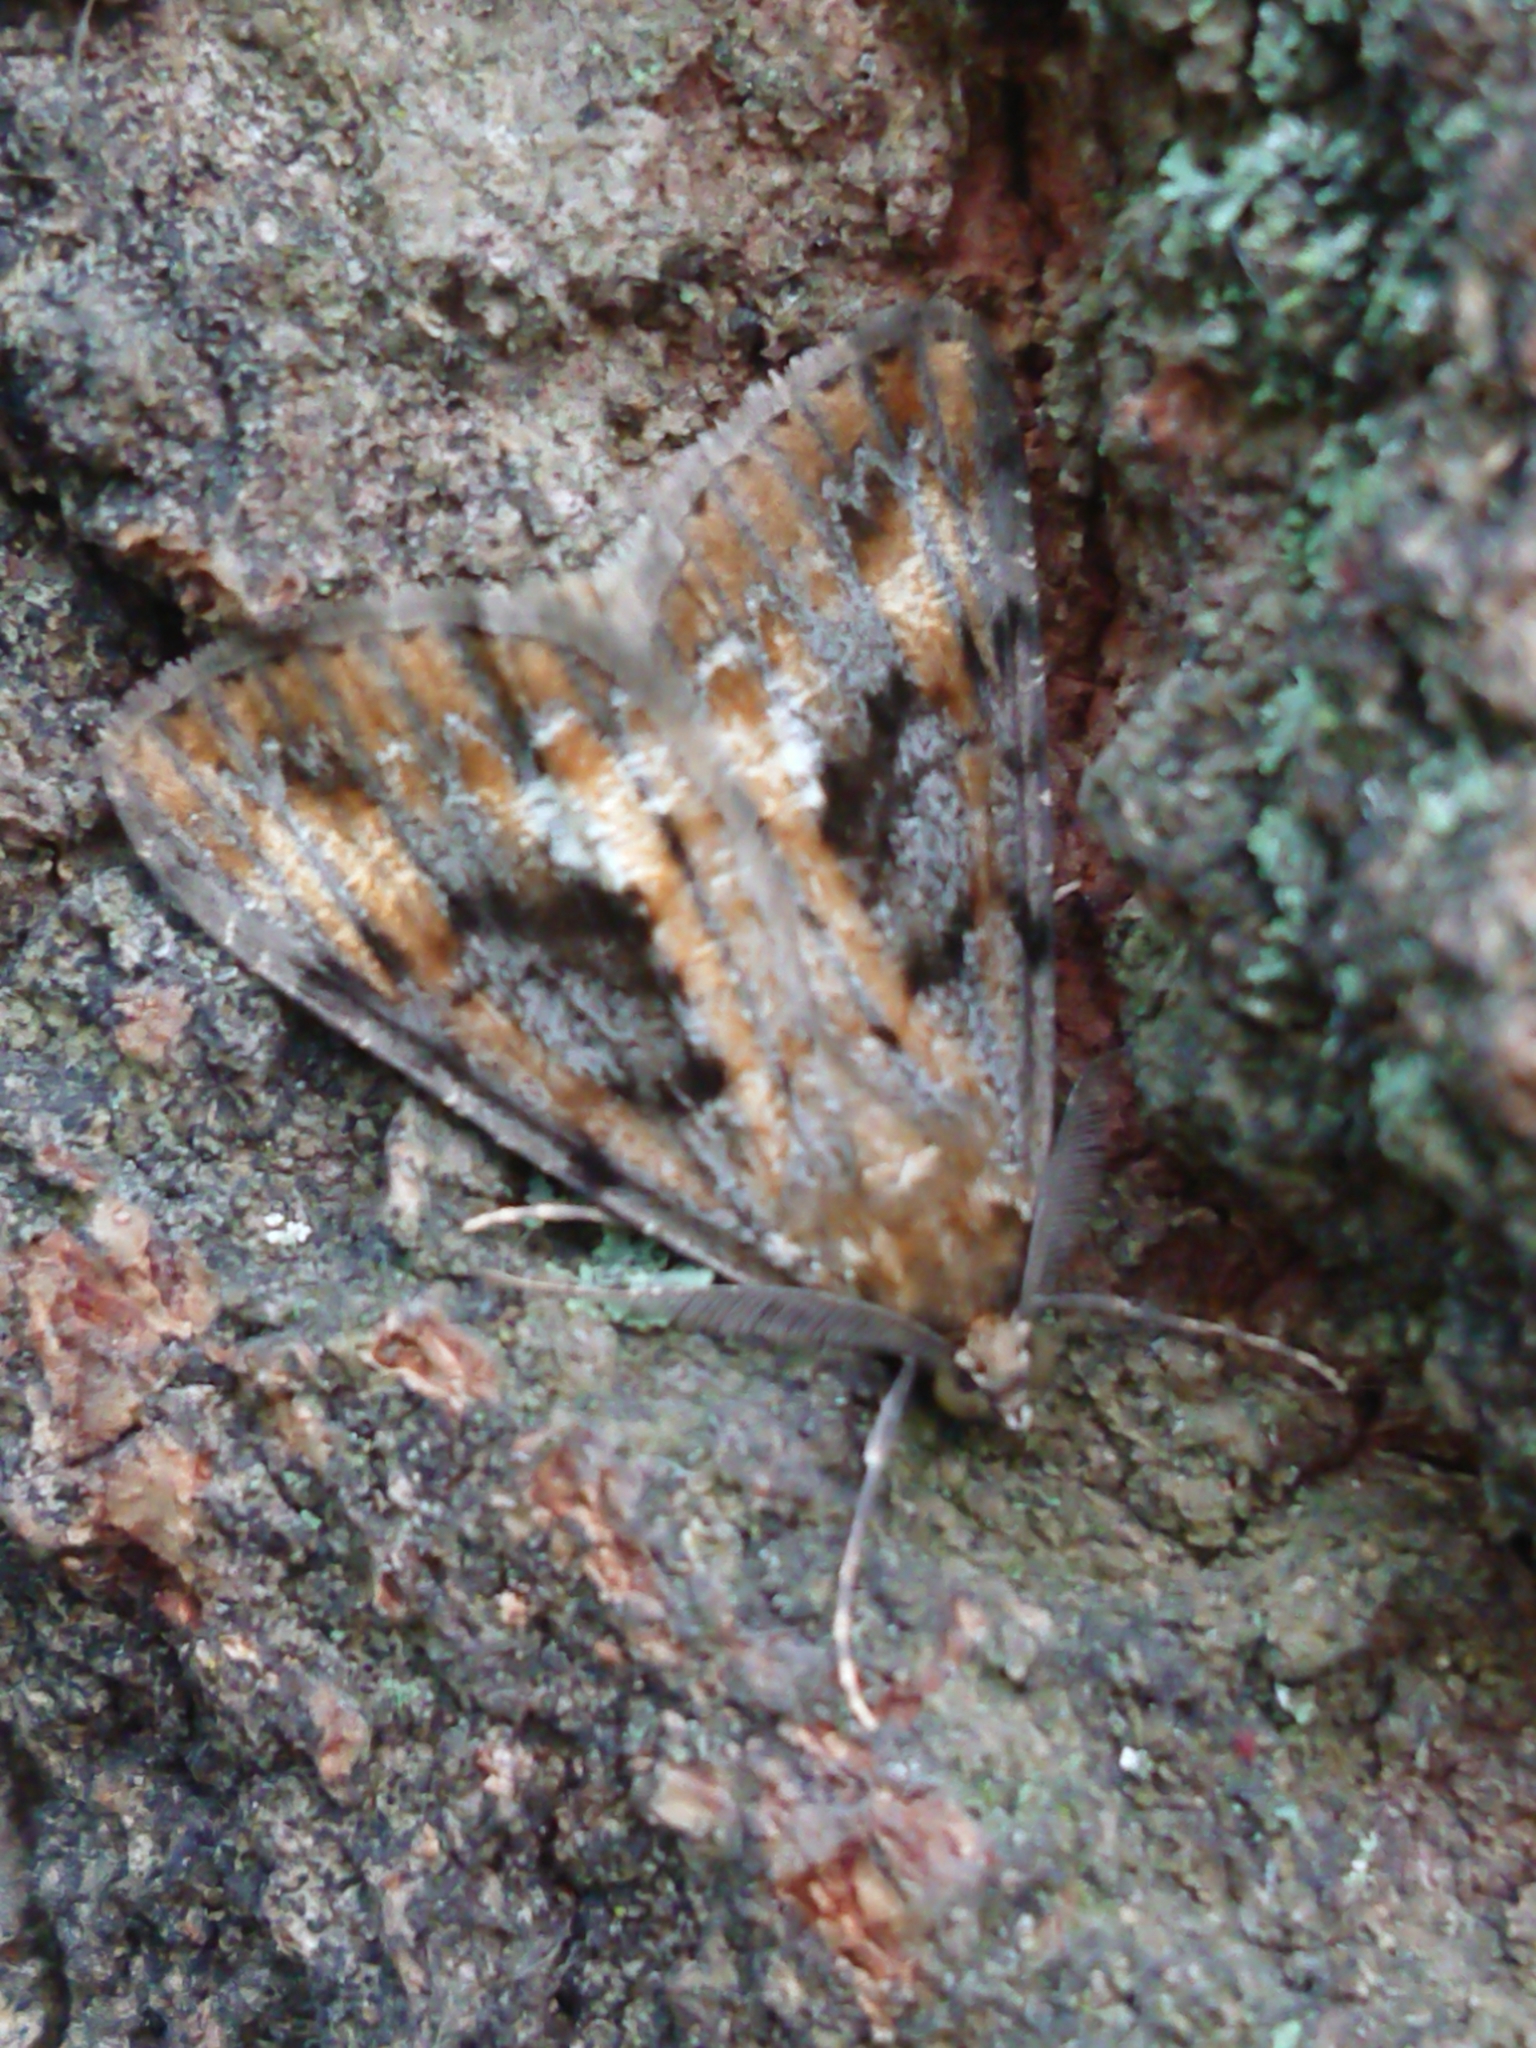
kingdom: Animalia
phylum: Arthropoda
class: Insecta
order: Lepidoptera
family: Geometridae
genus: Pseudocoremia
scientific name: Pseudocoremia leucelaea
